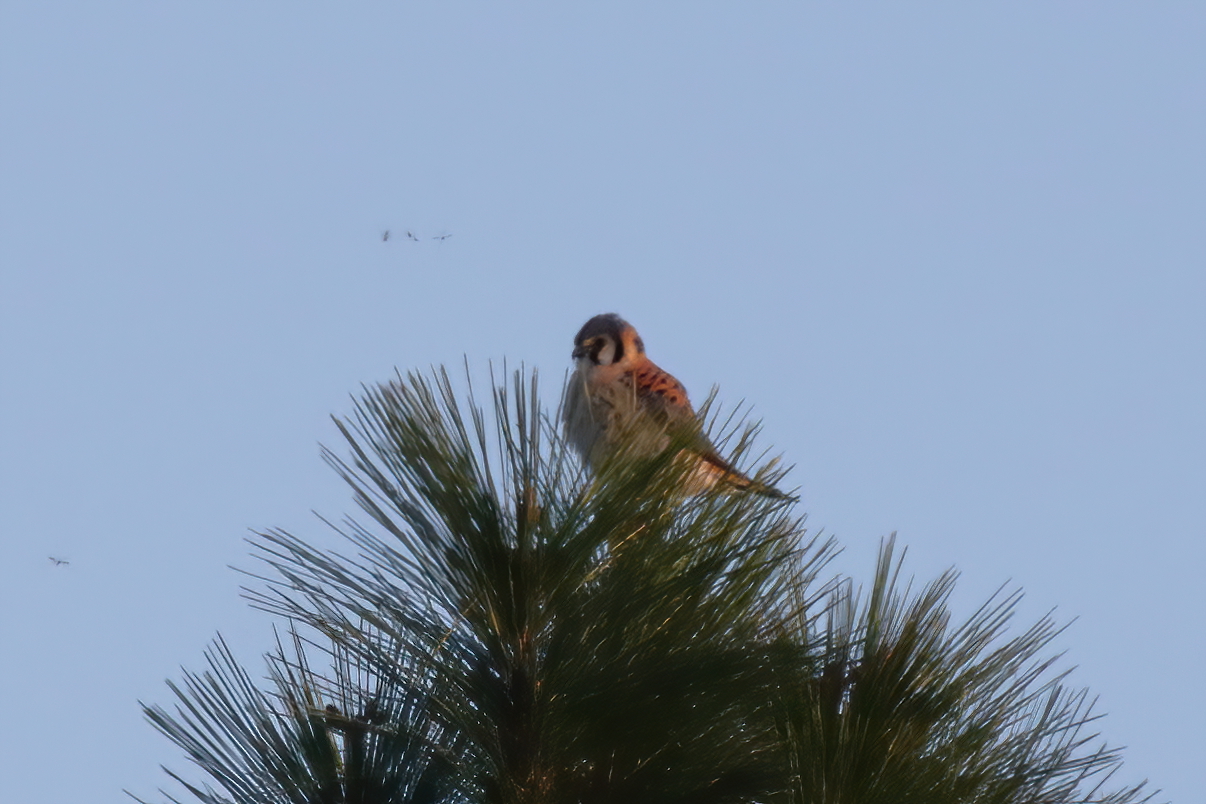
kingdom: Animalia
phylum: Chordata
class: Aves
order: Falconiformes
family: Falconidae
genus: Falco
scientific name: Falco sparverius
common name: American kestrel
